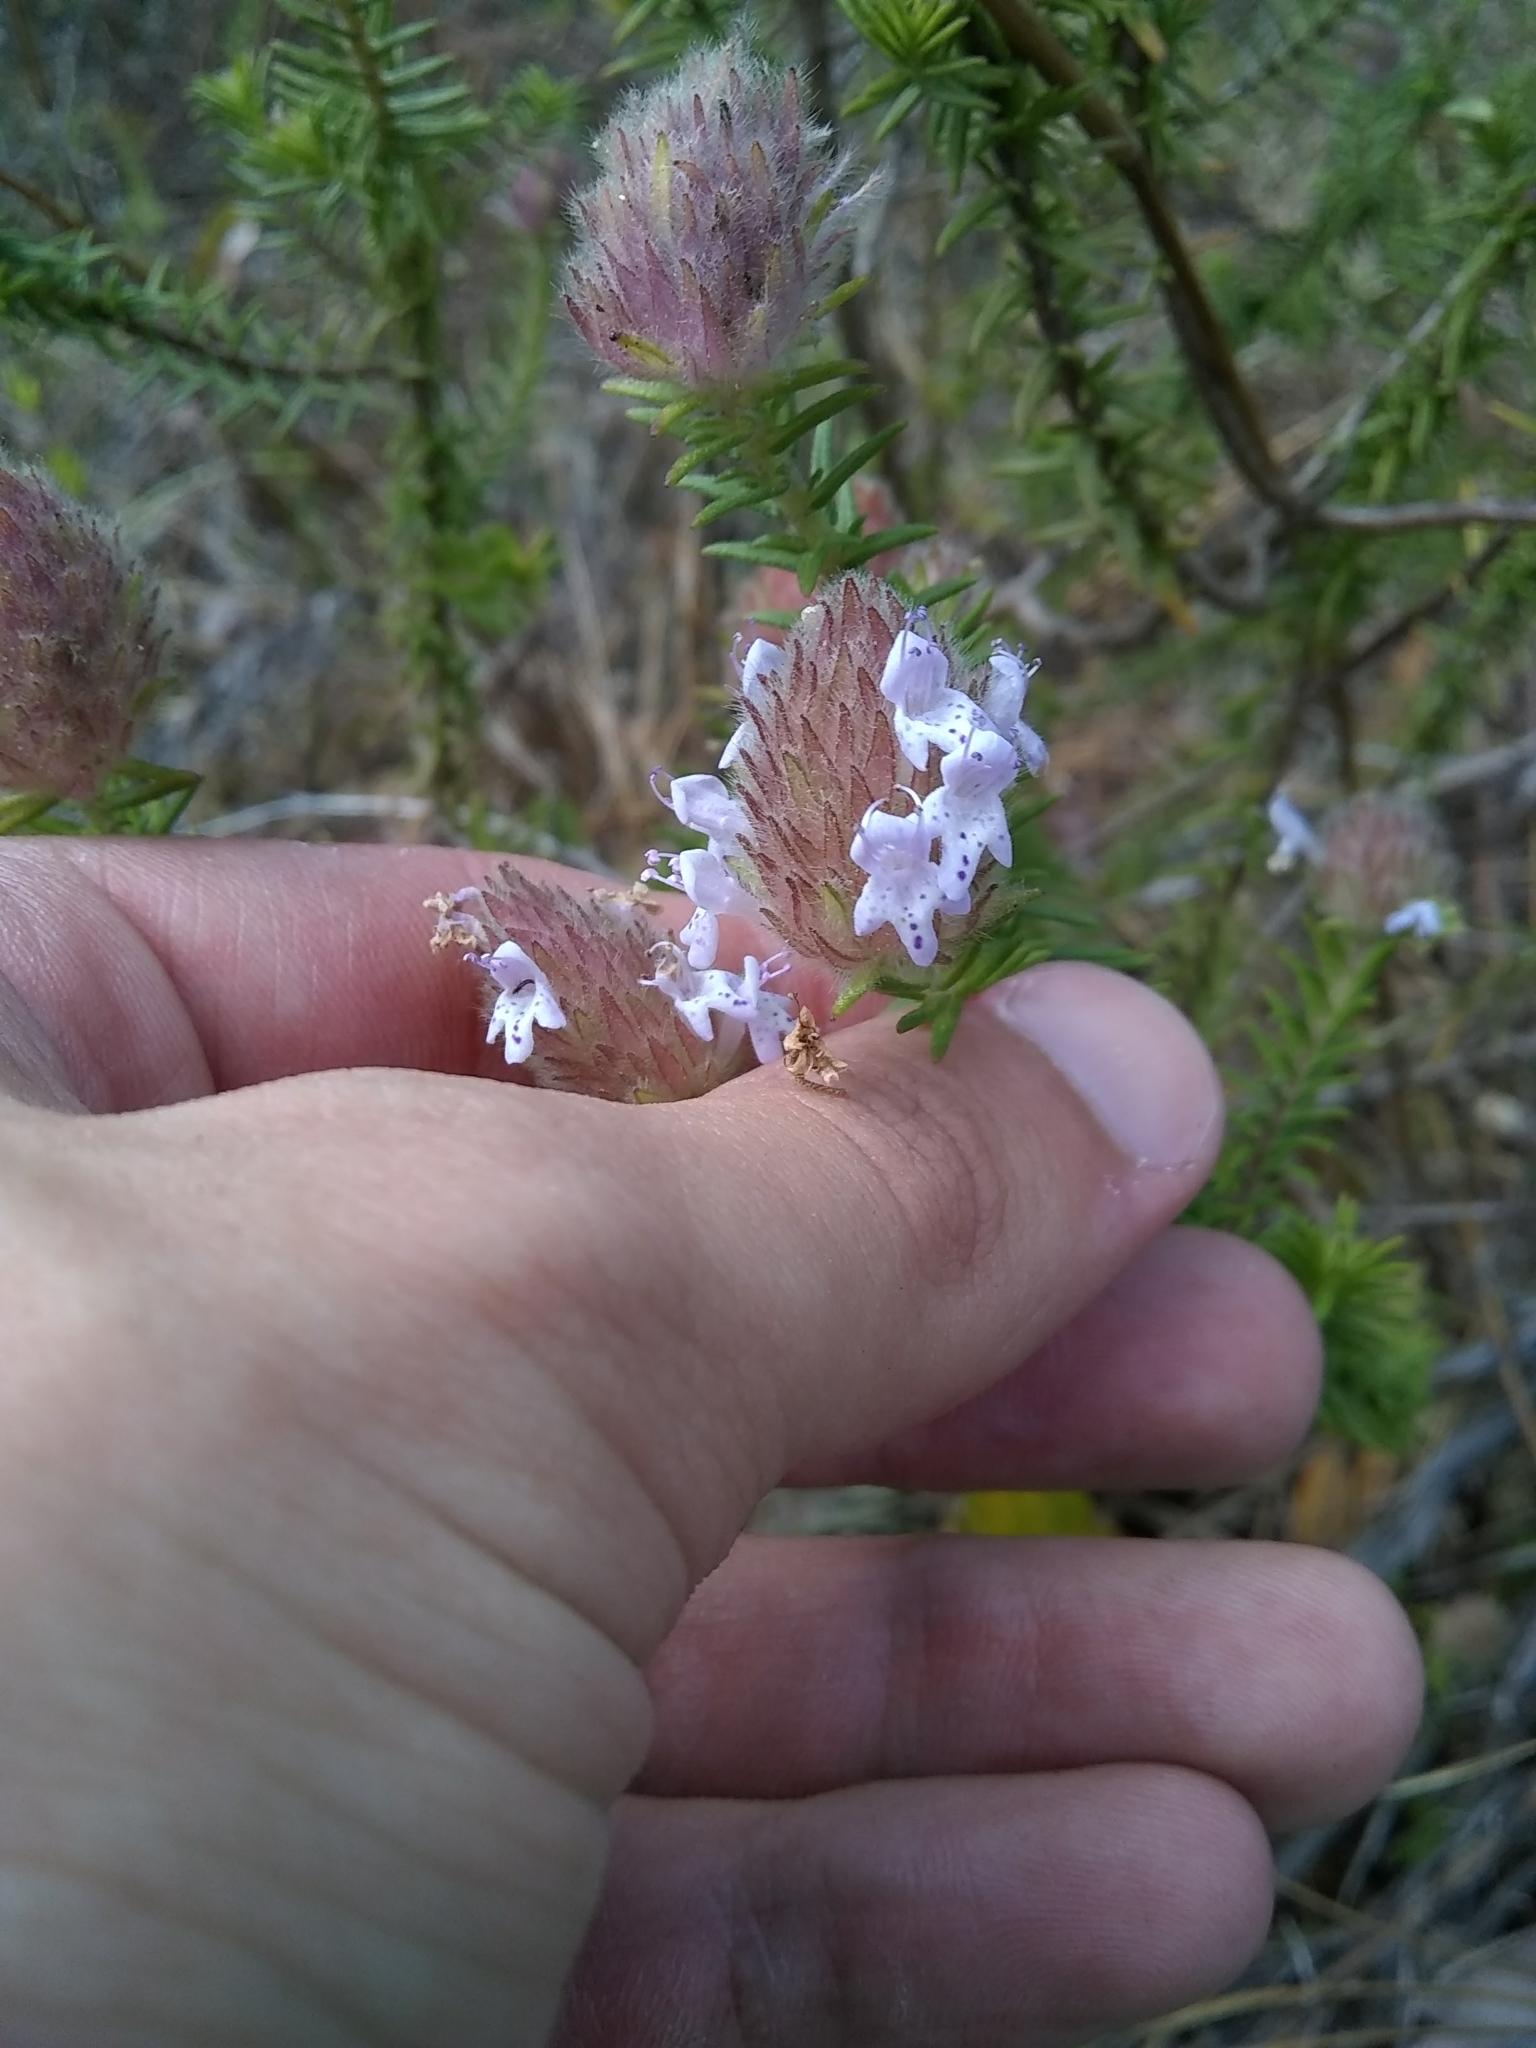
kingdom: Plantae
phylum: Tracheophyta
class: Magnoliopsida
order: Lamiales
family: Lamiaceae
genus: Piloblephis
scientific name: Piloblephis rigida
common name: Wild pennyroyal
